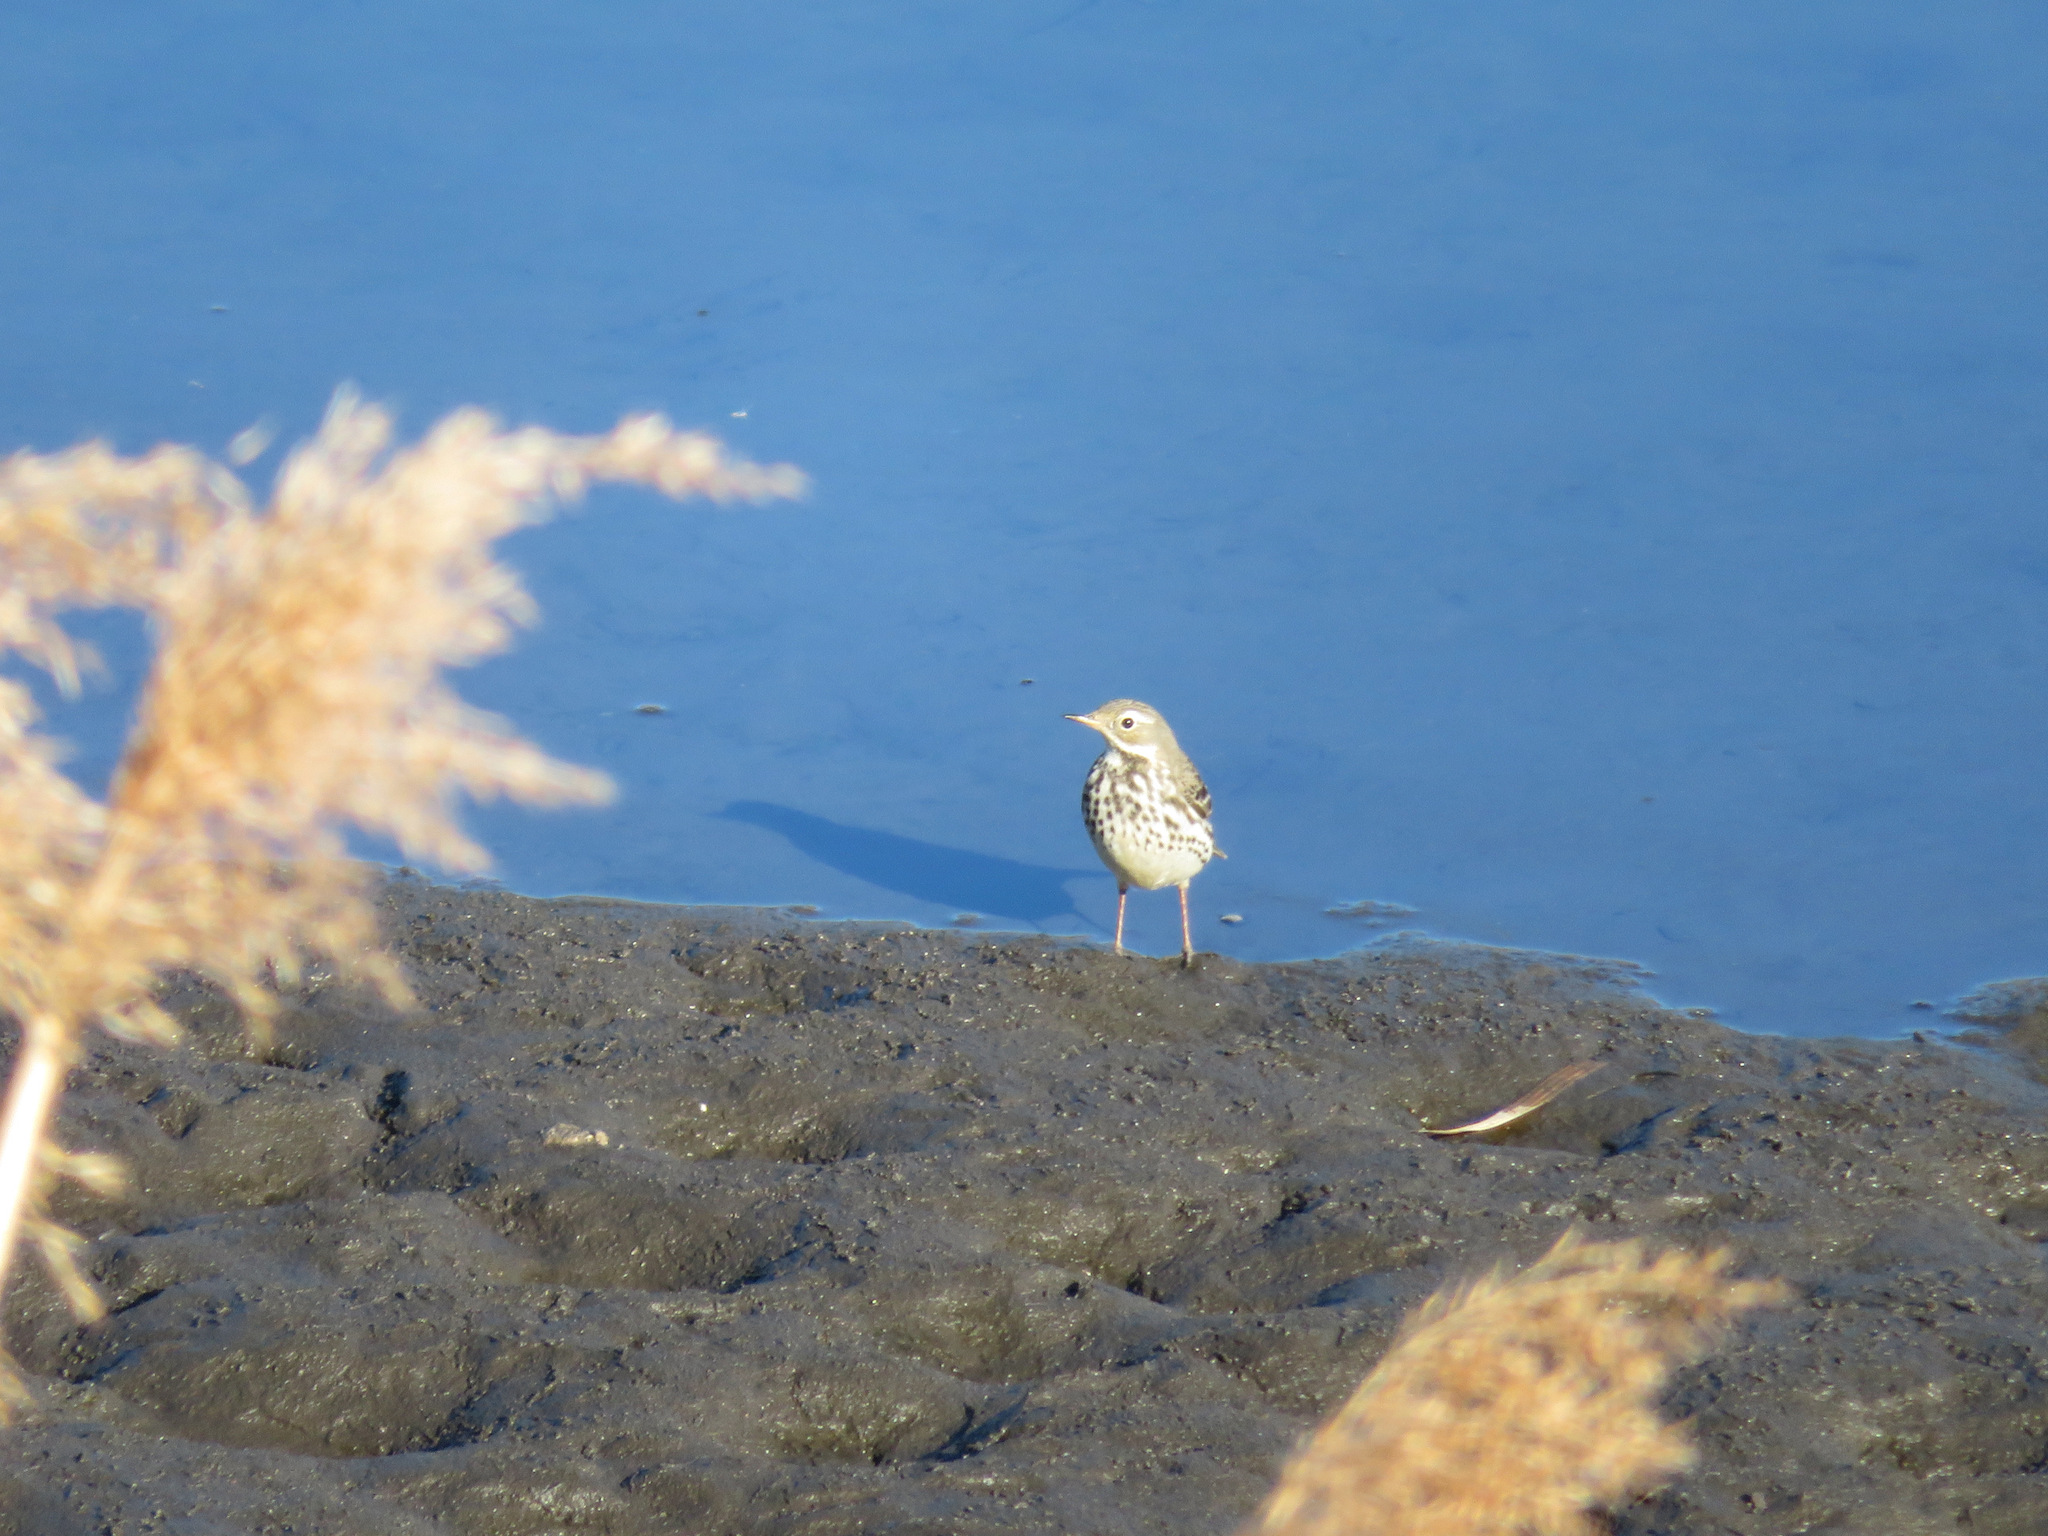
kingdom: Animalia
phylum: Chordata
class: Aves
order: Passeriformes
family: Motacillidae
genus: Anthus
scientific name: Anthus rubescens
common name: Buff-bellied pipit
